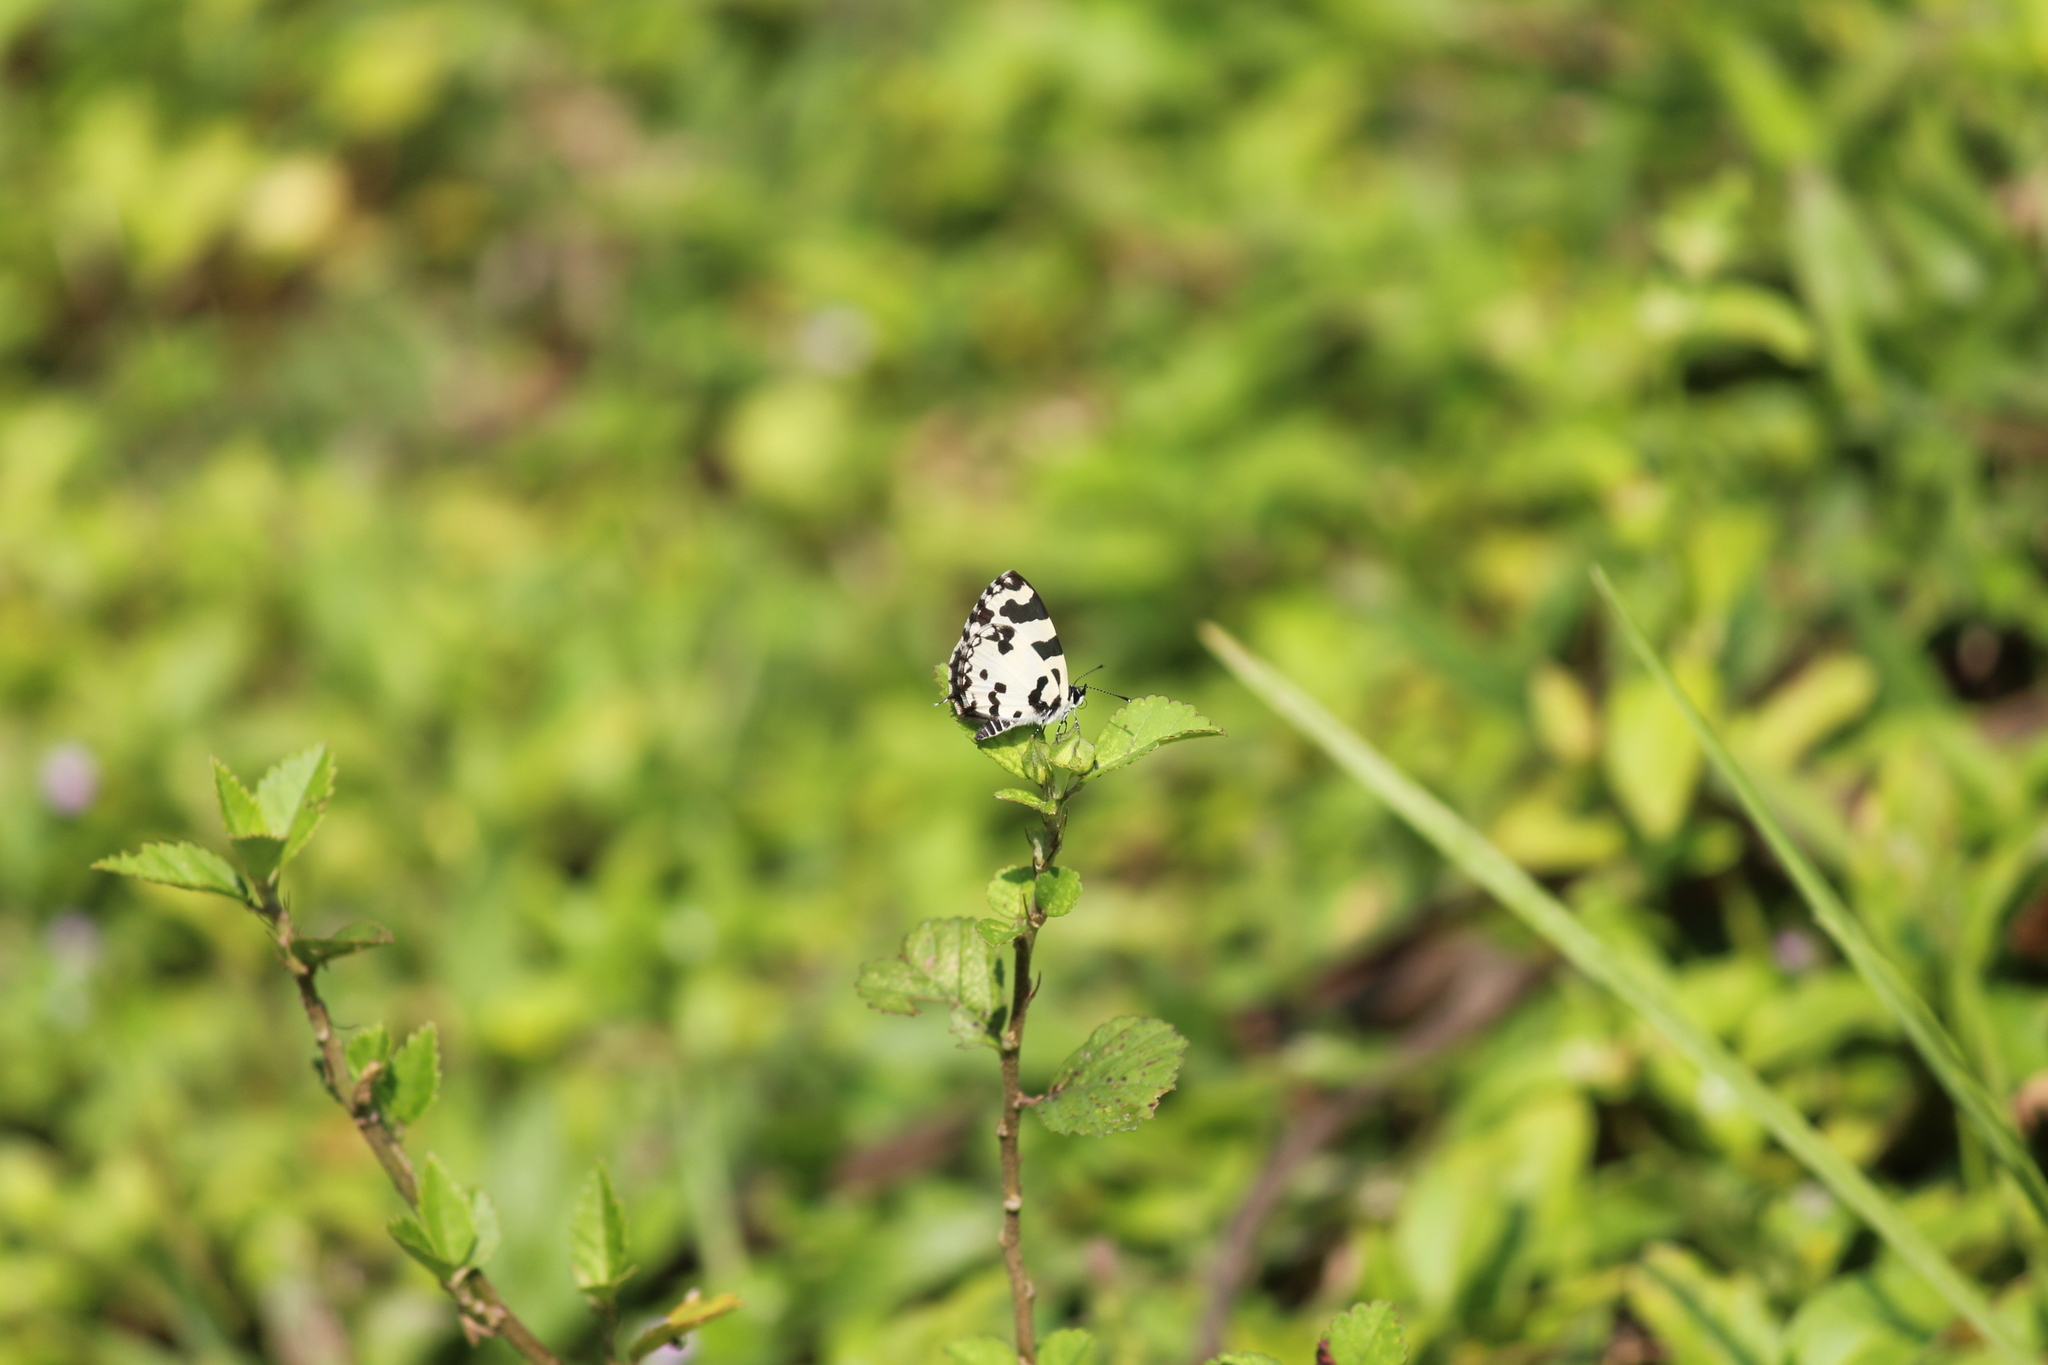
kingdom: Animalia
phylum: Arthropoda
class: Insecta
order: Lepidoptera
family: Lycaenidae
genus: Caleta
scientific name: Caleta decidia
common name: Angled pierrot
